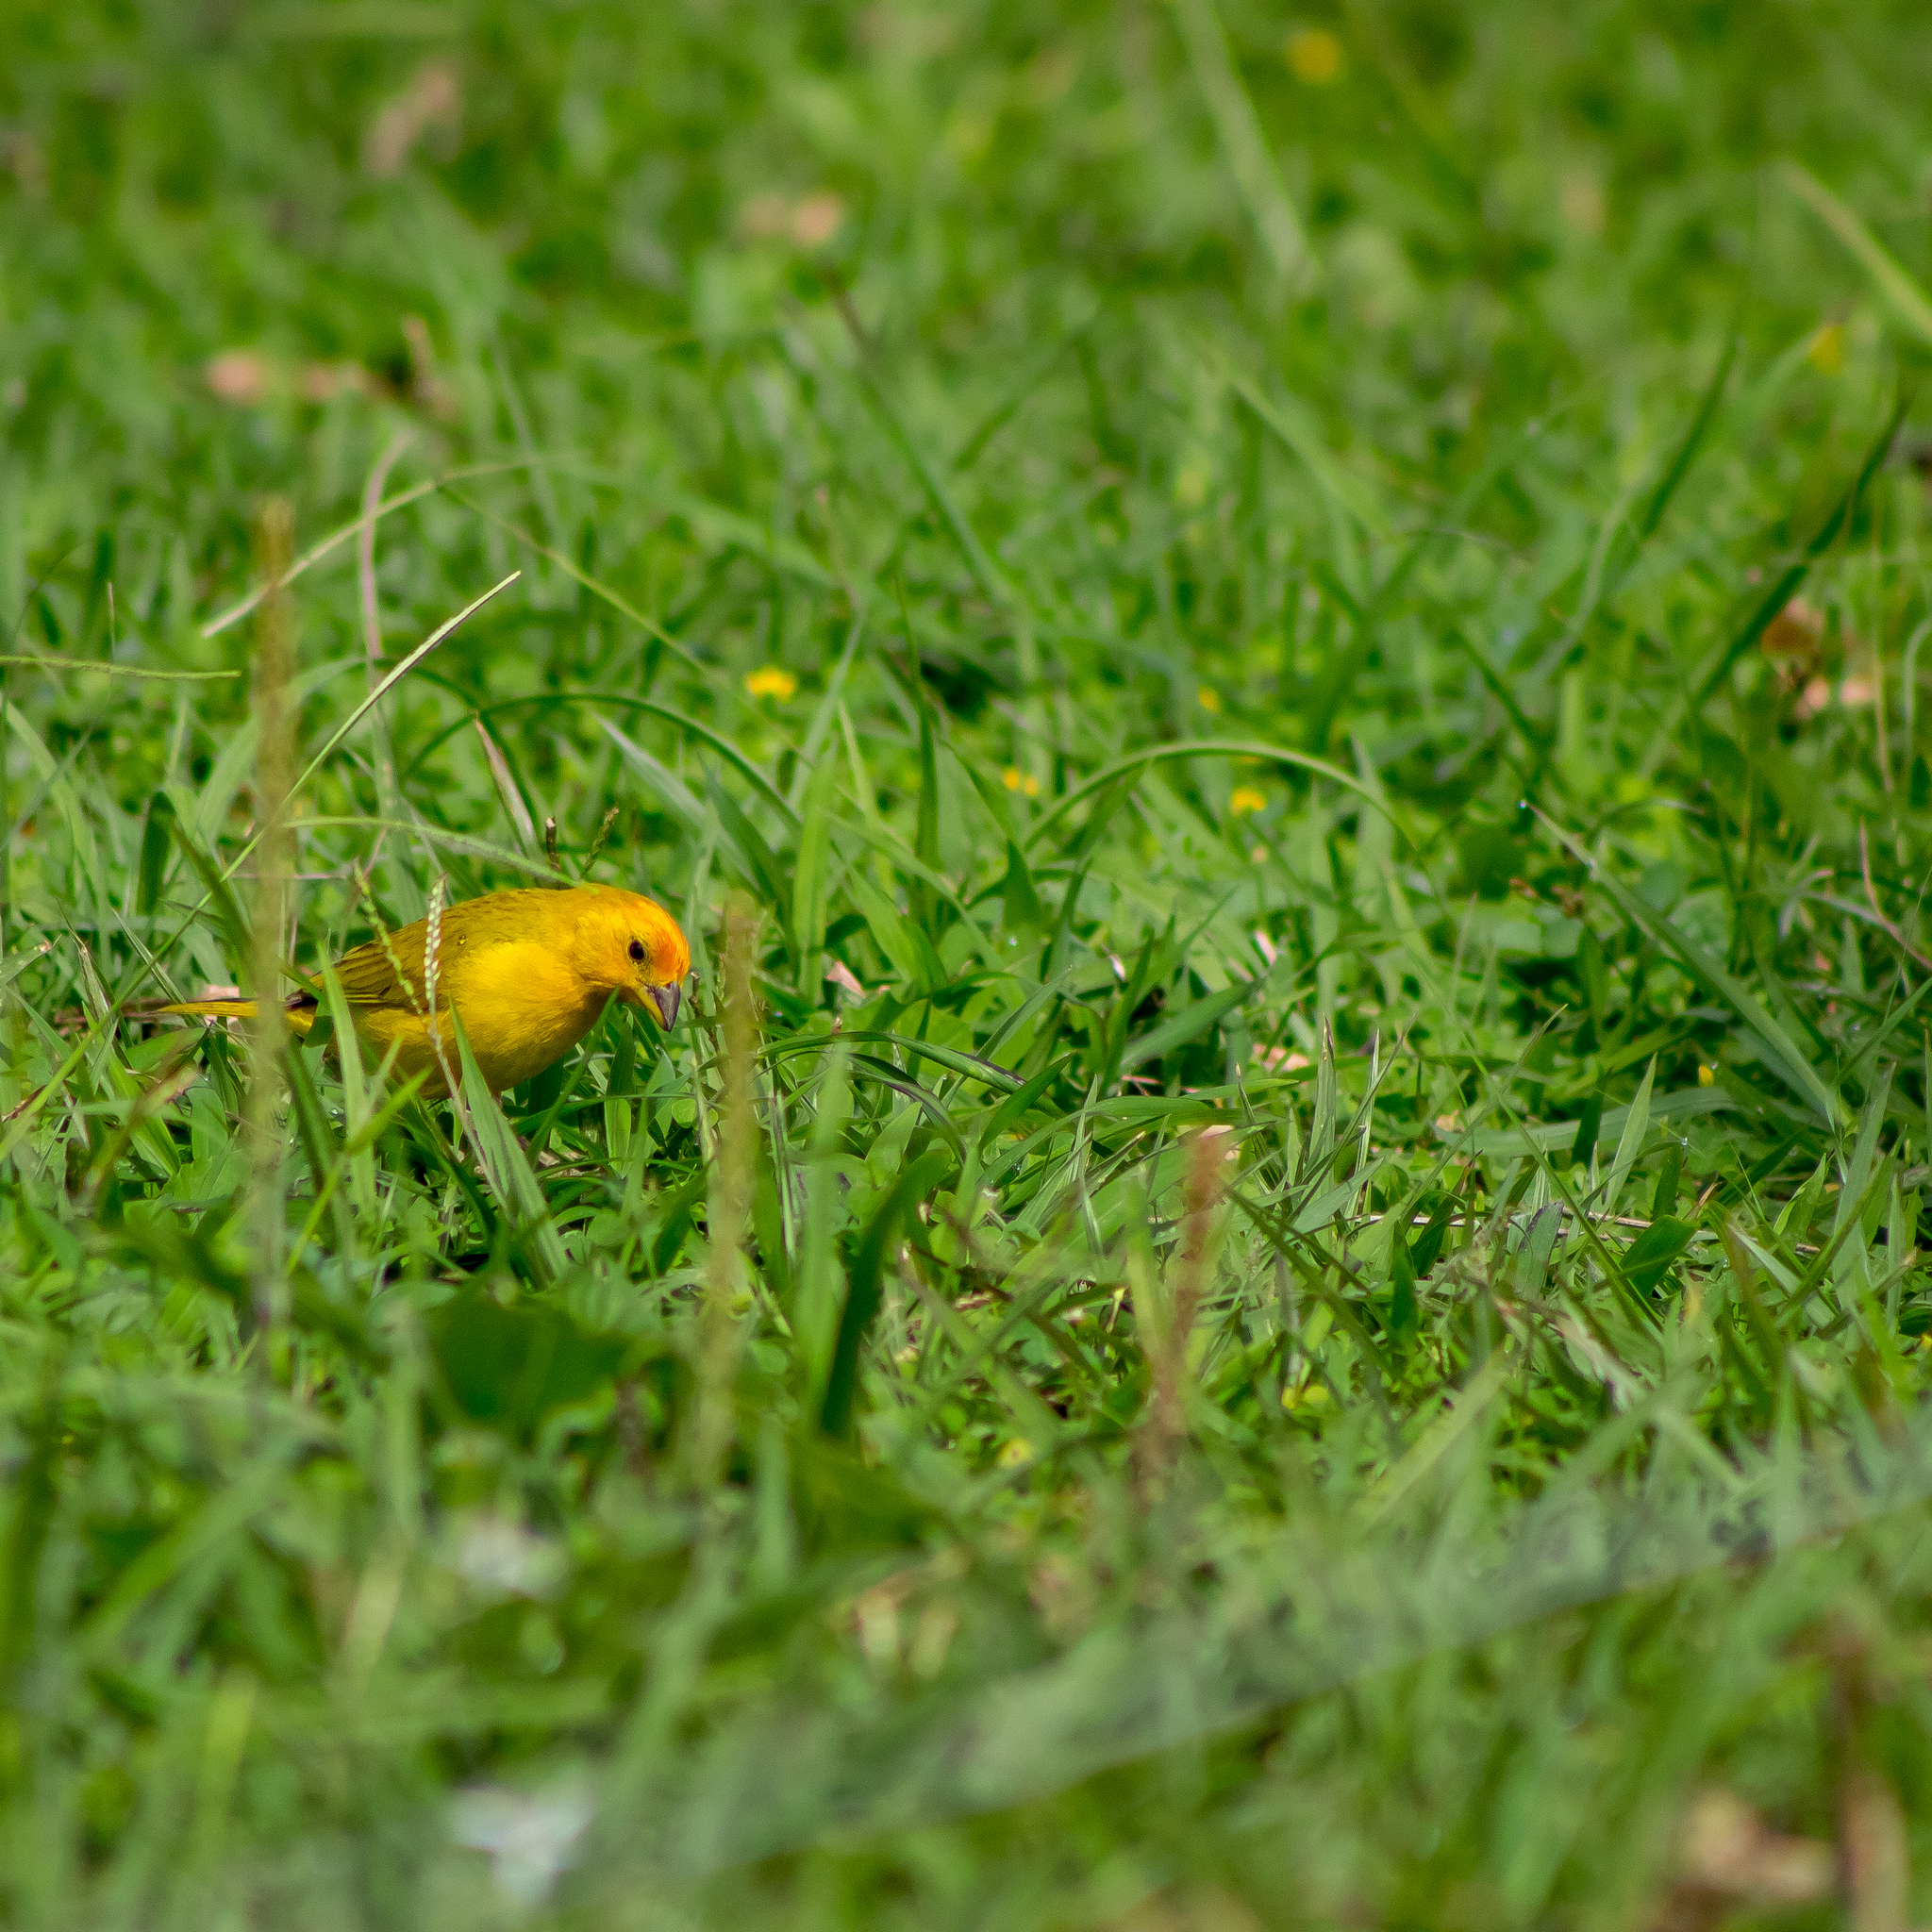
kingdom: Animalia
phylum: Chordata
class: Aves
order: Passeriformes
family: Thraupidae
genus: Sicalis
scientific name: Sicalis flaveola
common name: Saffron finch
